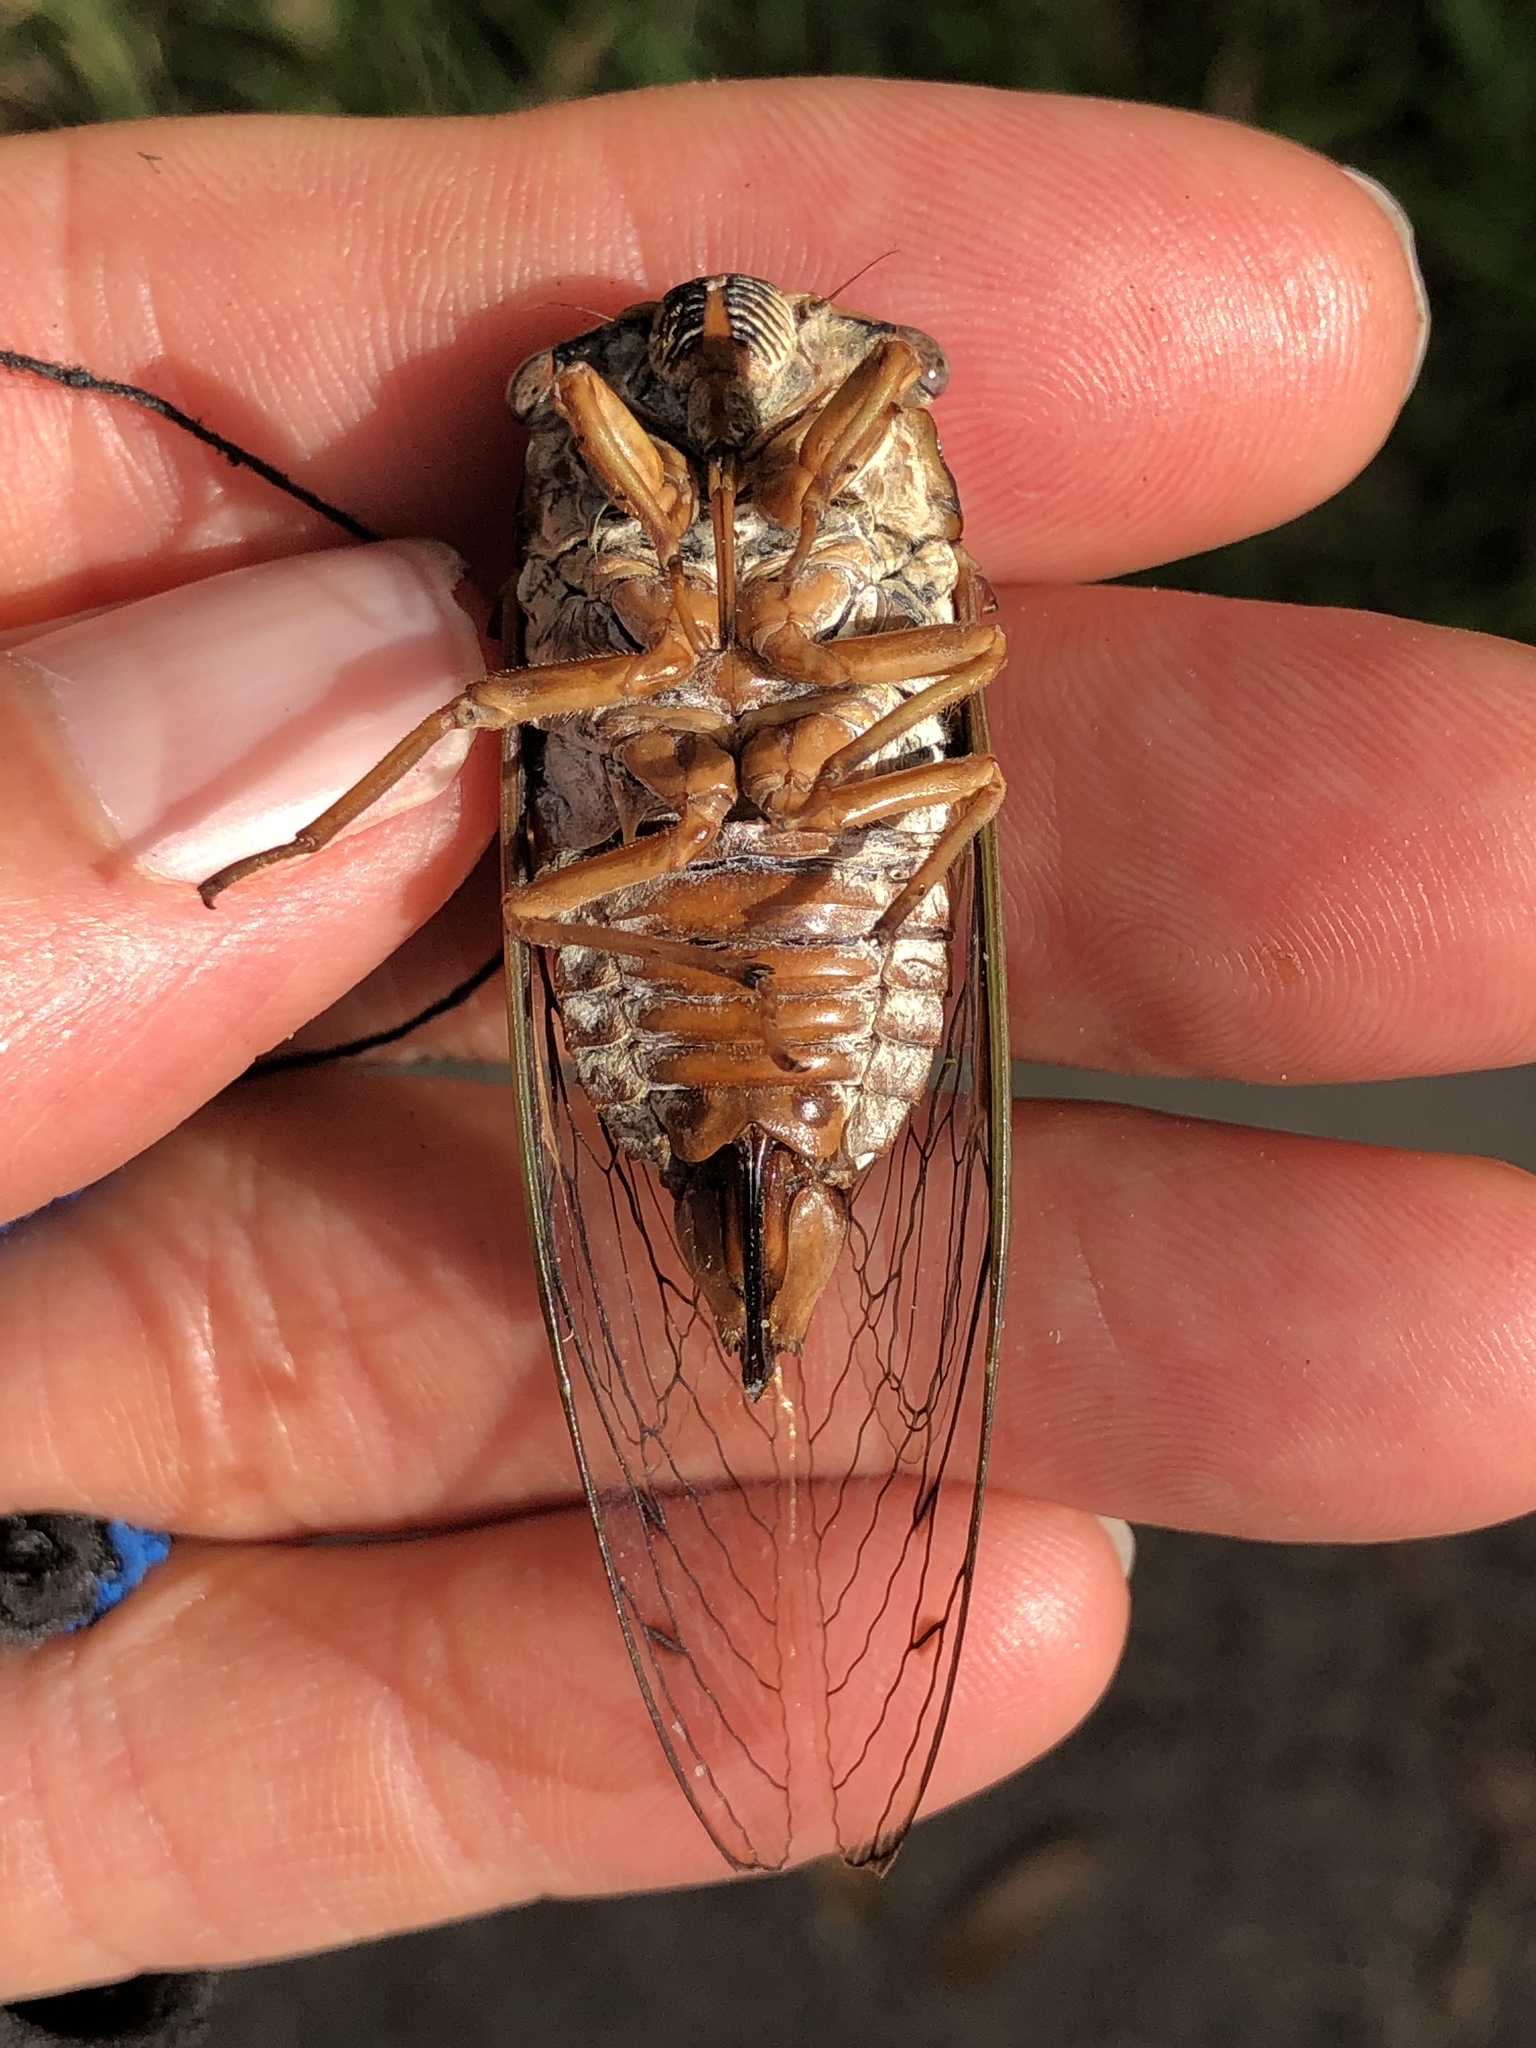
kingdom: Animalia
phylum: Arthropoda
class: Insecta
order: Hemiptera
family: Cicadidae
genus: Megatibicen
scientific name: Megatibicen resh
